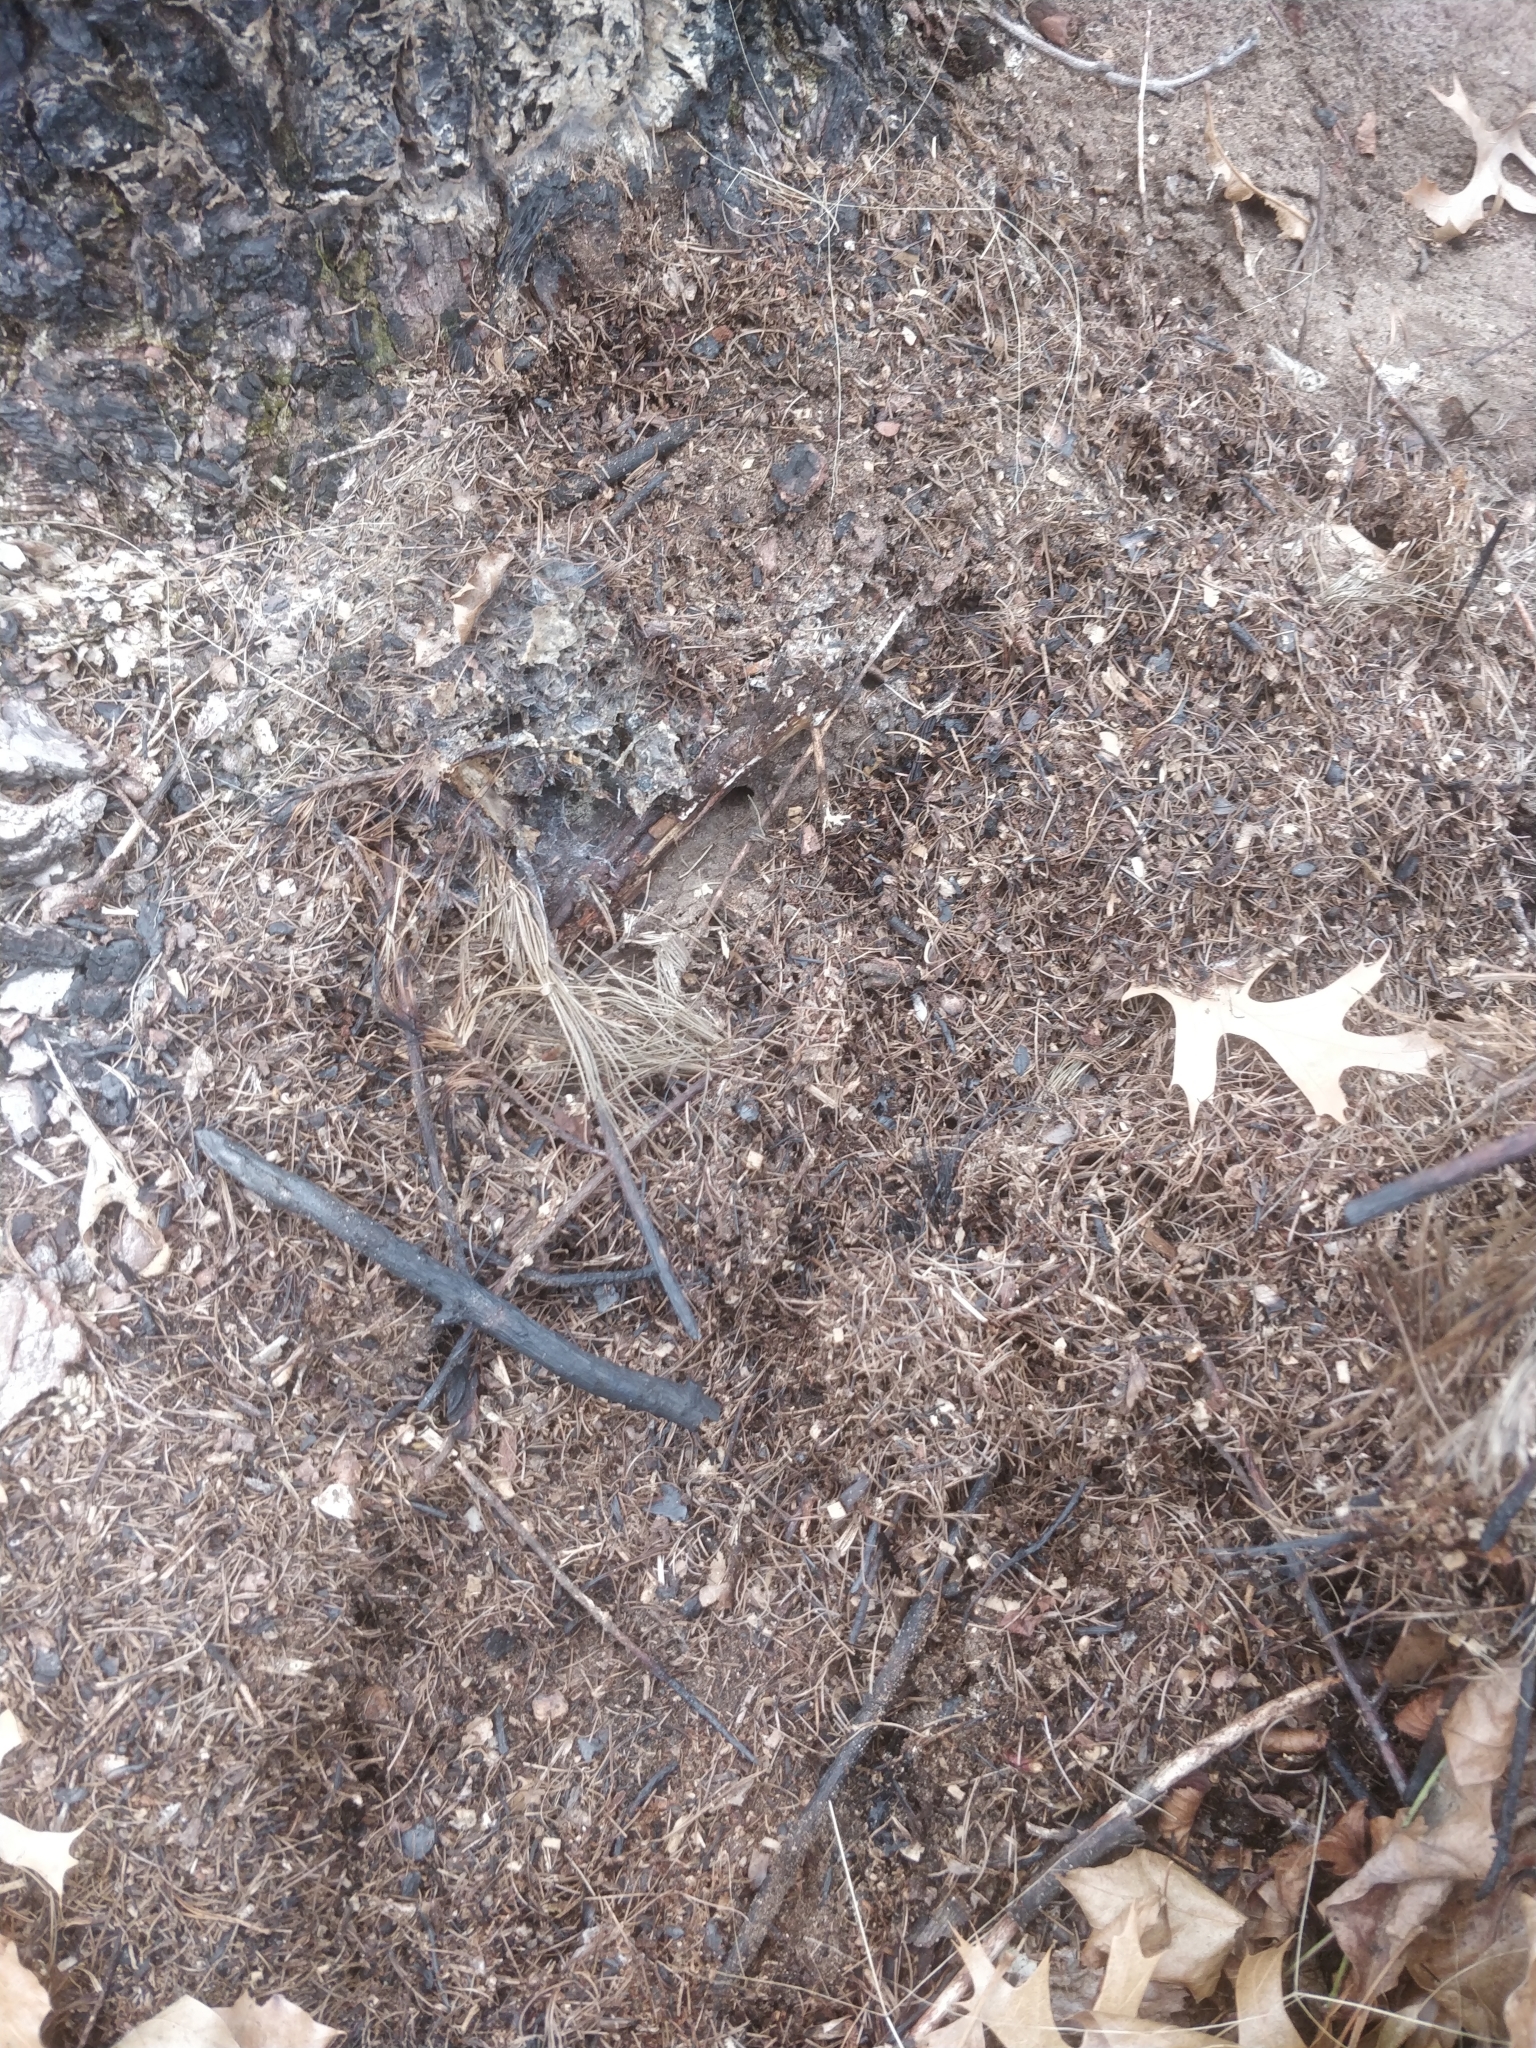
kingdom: Animalia
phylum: Arthropoda
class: Insecta
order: Hymenoptera
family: Formicidae
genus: Formica
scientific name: Formica obscuriventris
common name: Northern red wood ant
